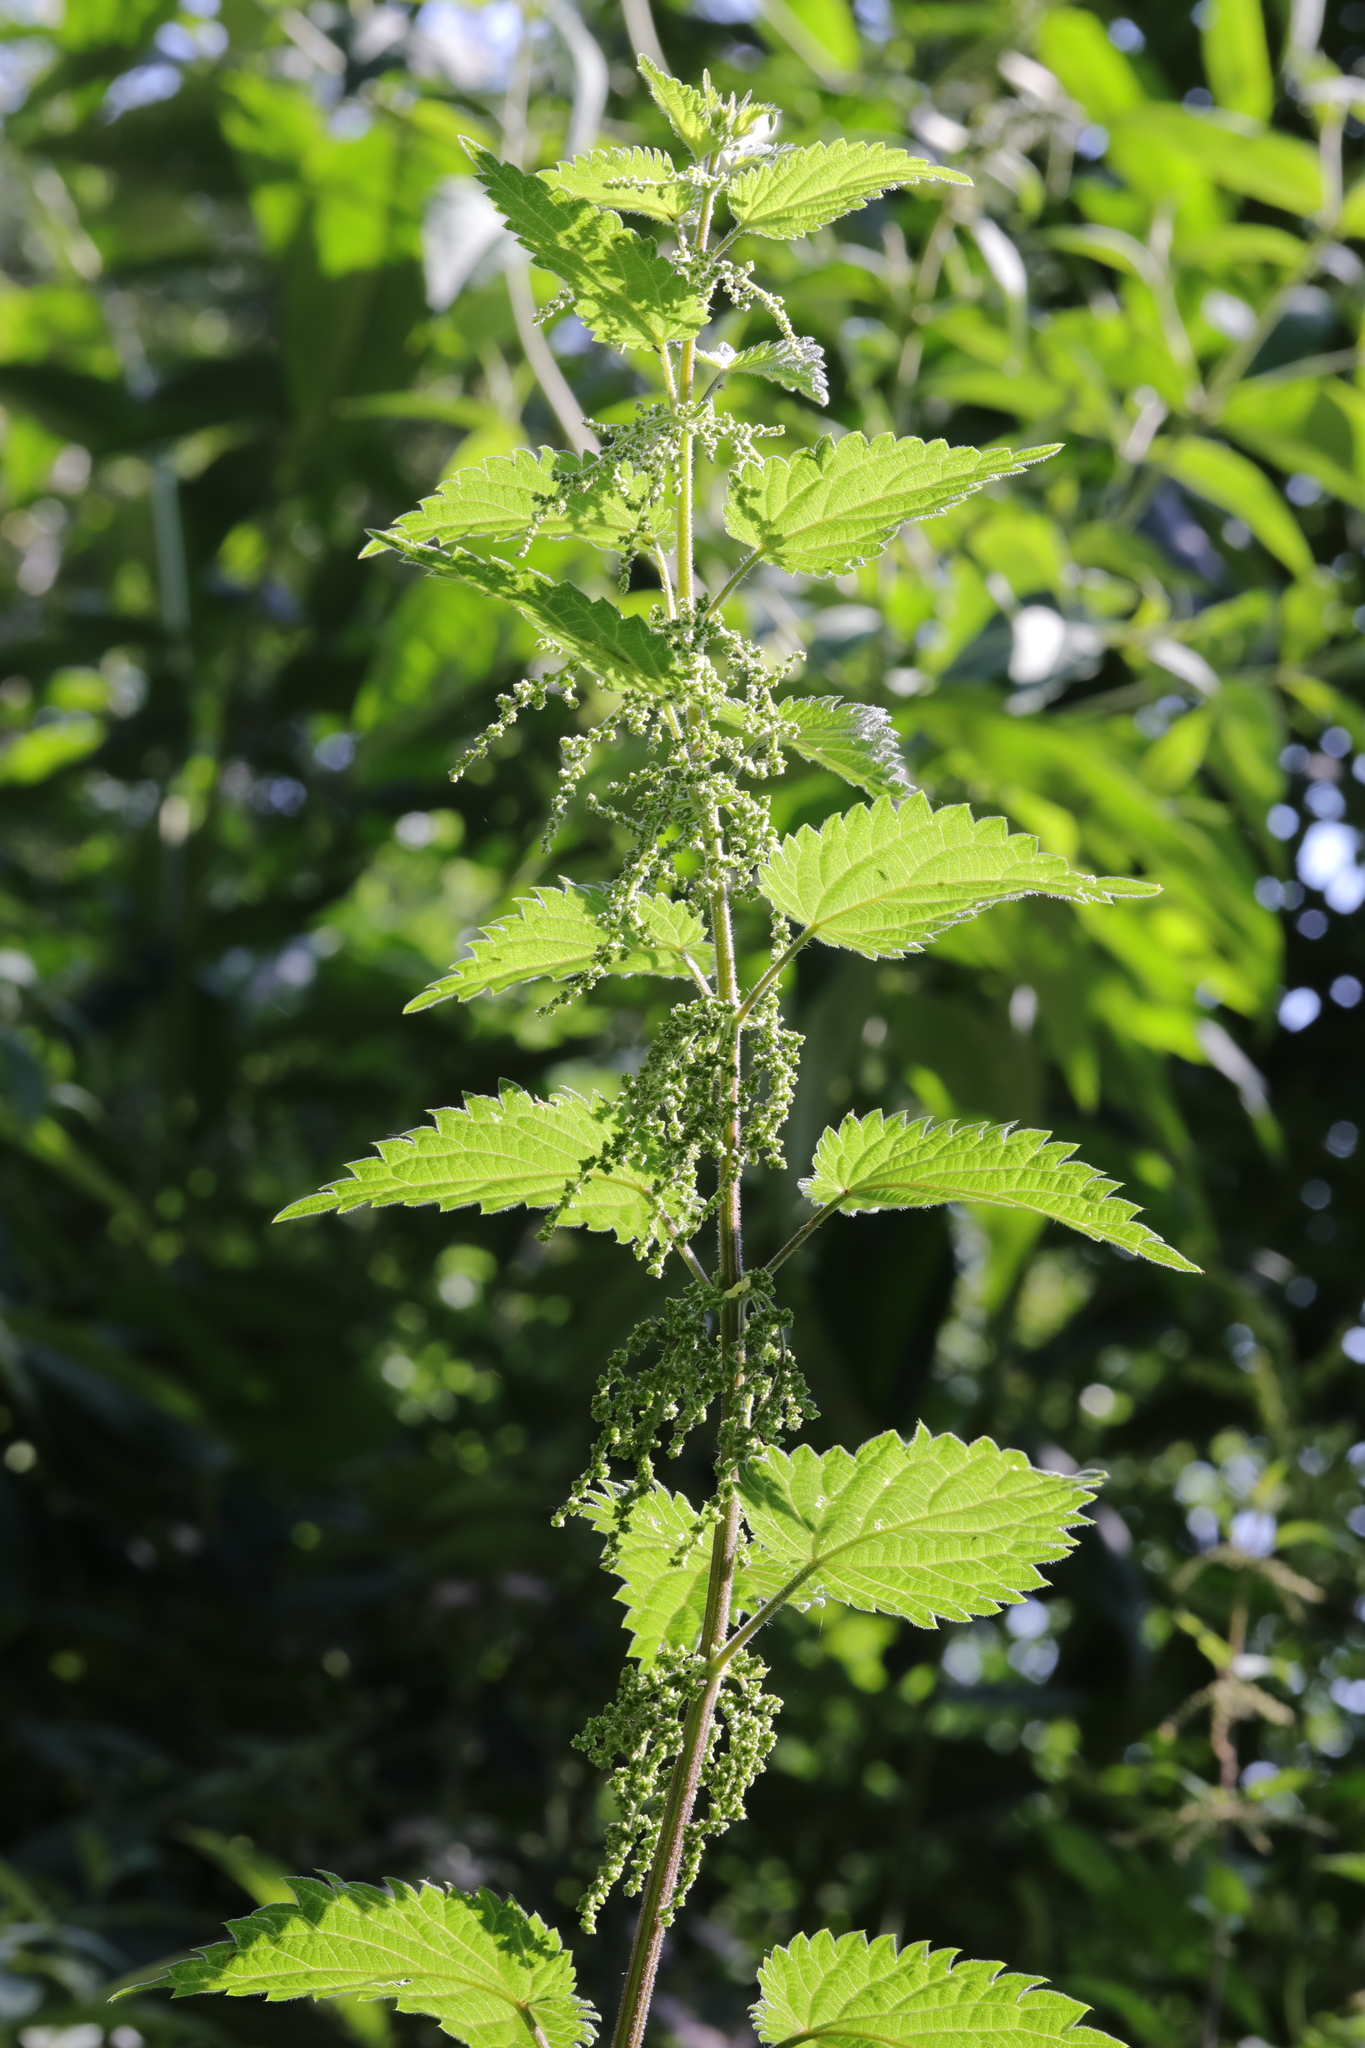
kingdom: Plantae
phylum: Tracheophyta
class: Magnoliopsida
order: Rosales
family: Urticaceae
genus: Urtica
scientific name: Urtica dioica
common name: Common nettle
